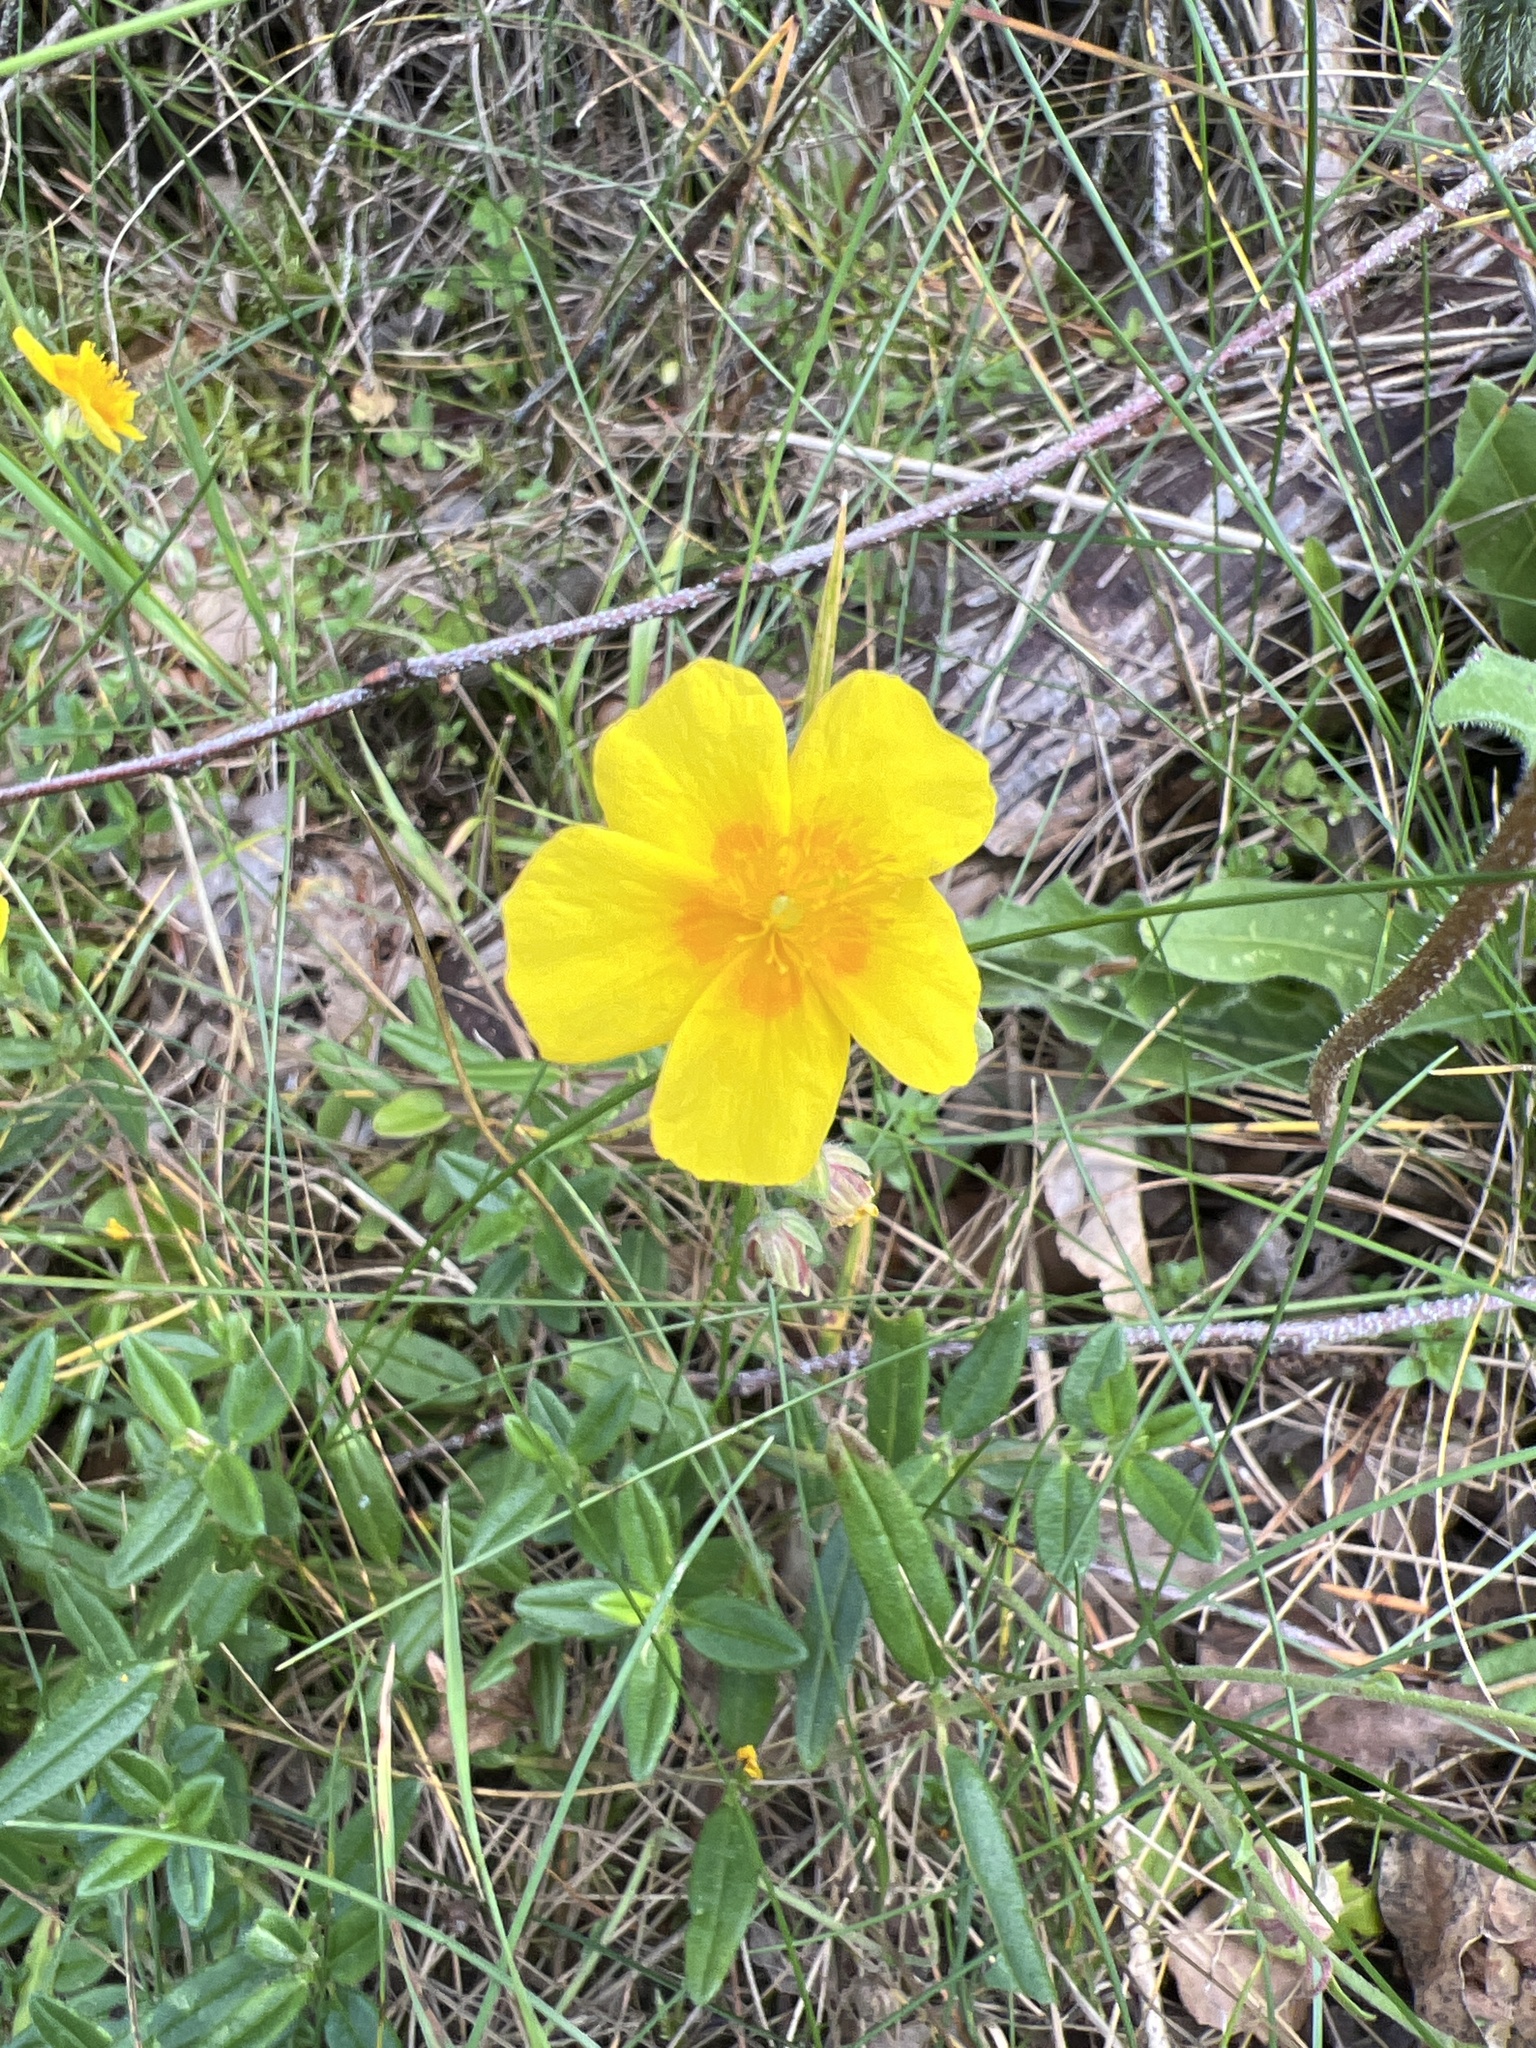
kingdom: Plantae
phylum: Tracheophyta
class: Magnoliopsida
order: Malvales
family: Cistaceae
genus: Helianthemum
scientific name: Helianthemum nummularium
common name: Common rock-rose
